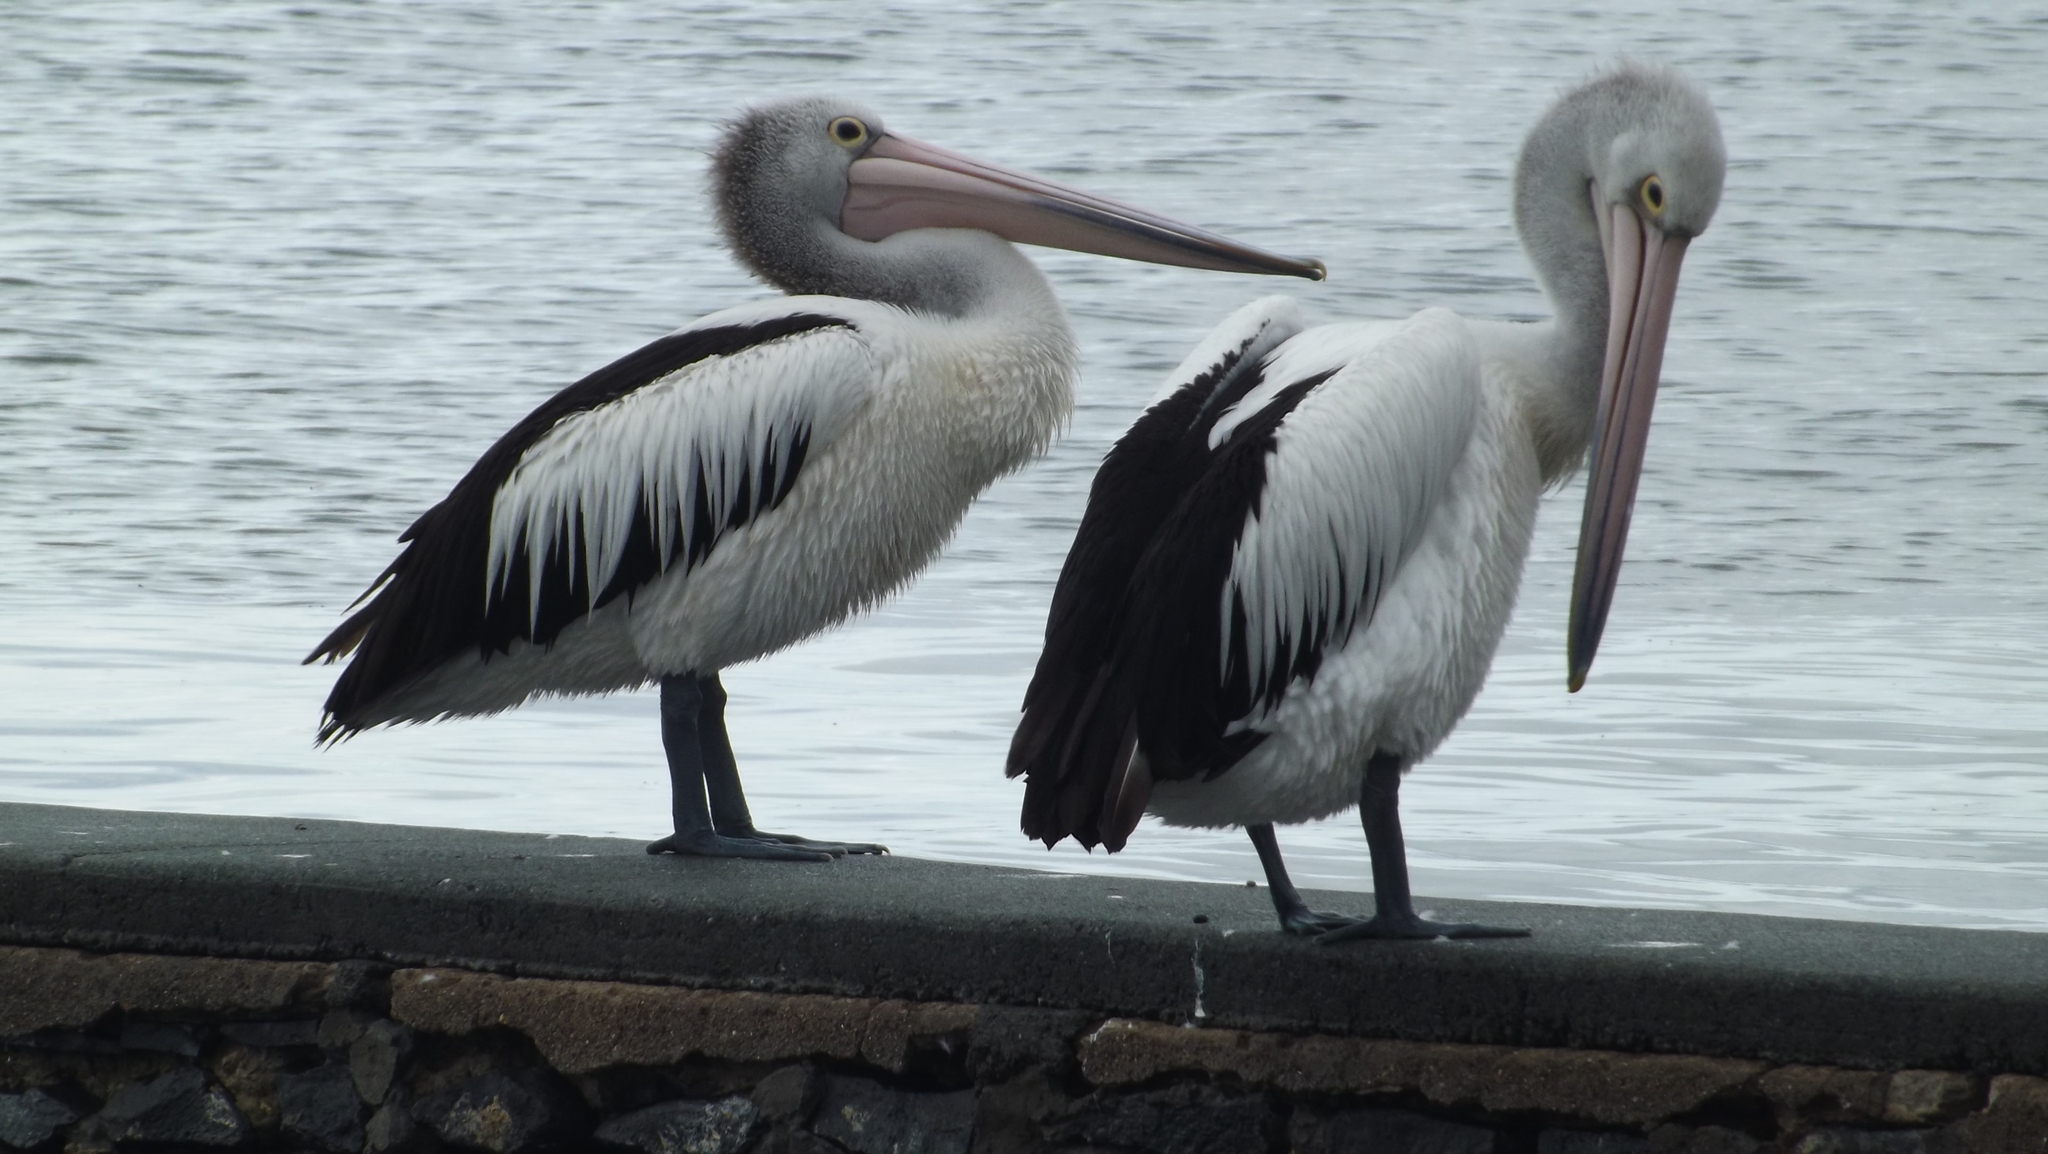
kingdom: Animalia
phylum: Chordata
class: Aves
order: Pelecaniformes
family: Pelecanidae
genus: Pelecanus
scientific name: Pelecanus conspicillatus
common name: Australian pelican
